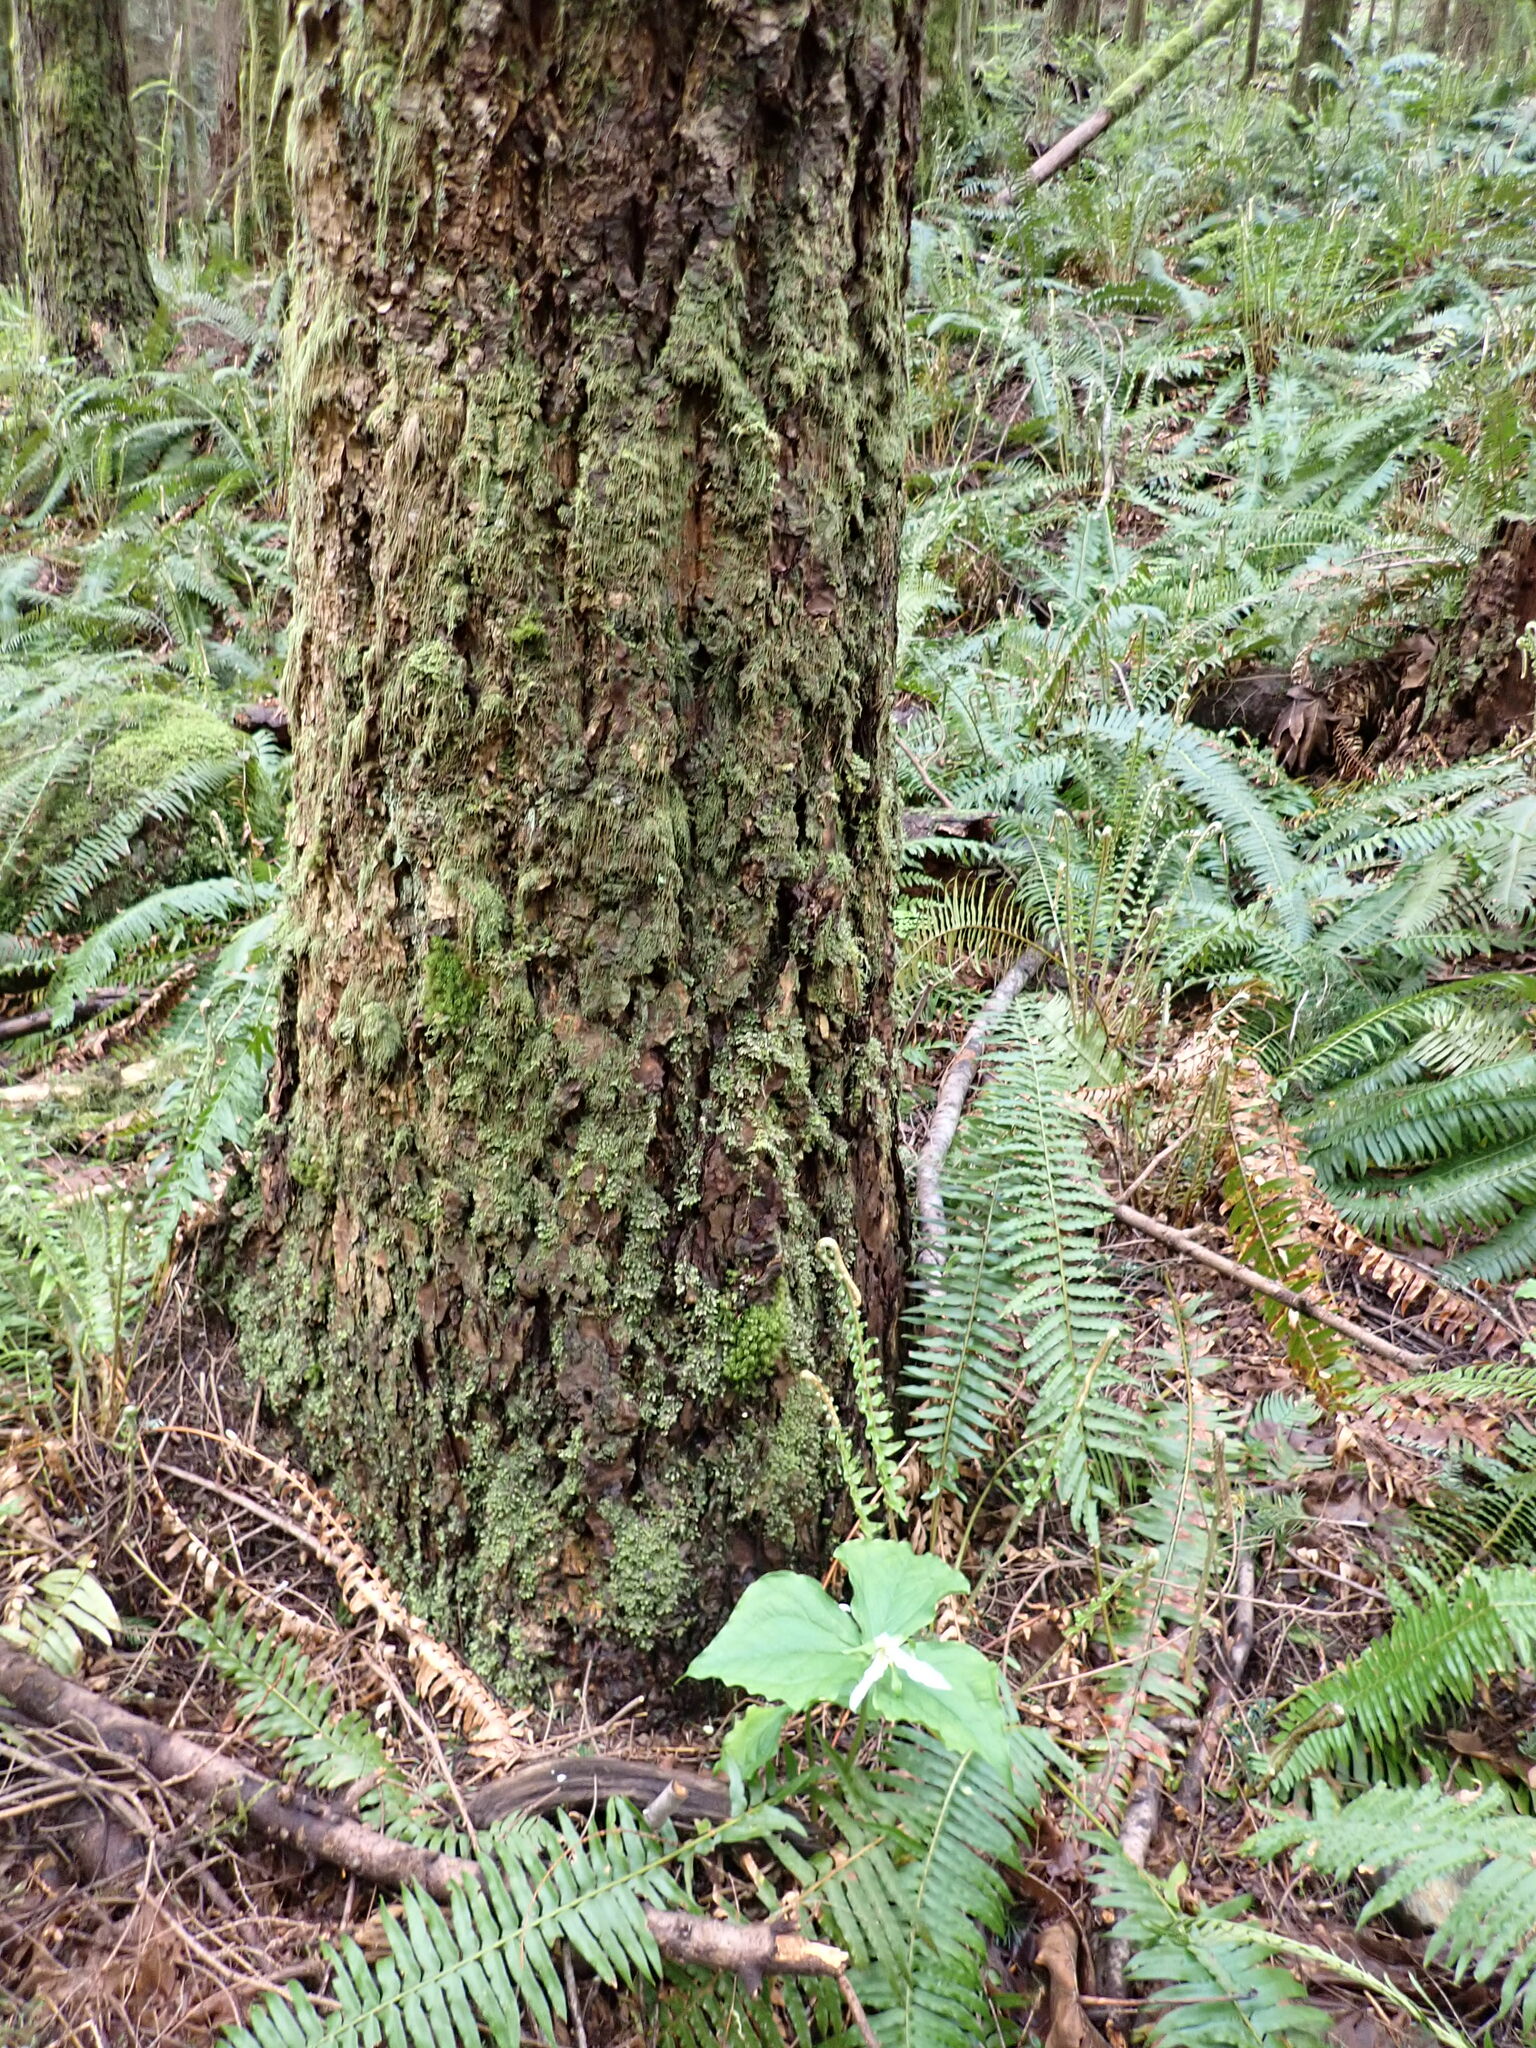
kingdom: Plantae
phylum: Tracheophyta
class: Liliopsida
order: Liliales
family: Melanthiaceae
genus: Trillium
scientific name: Trillium ovatum
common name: Pacific trillium
